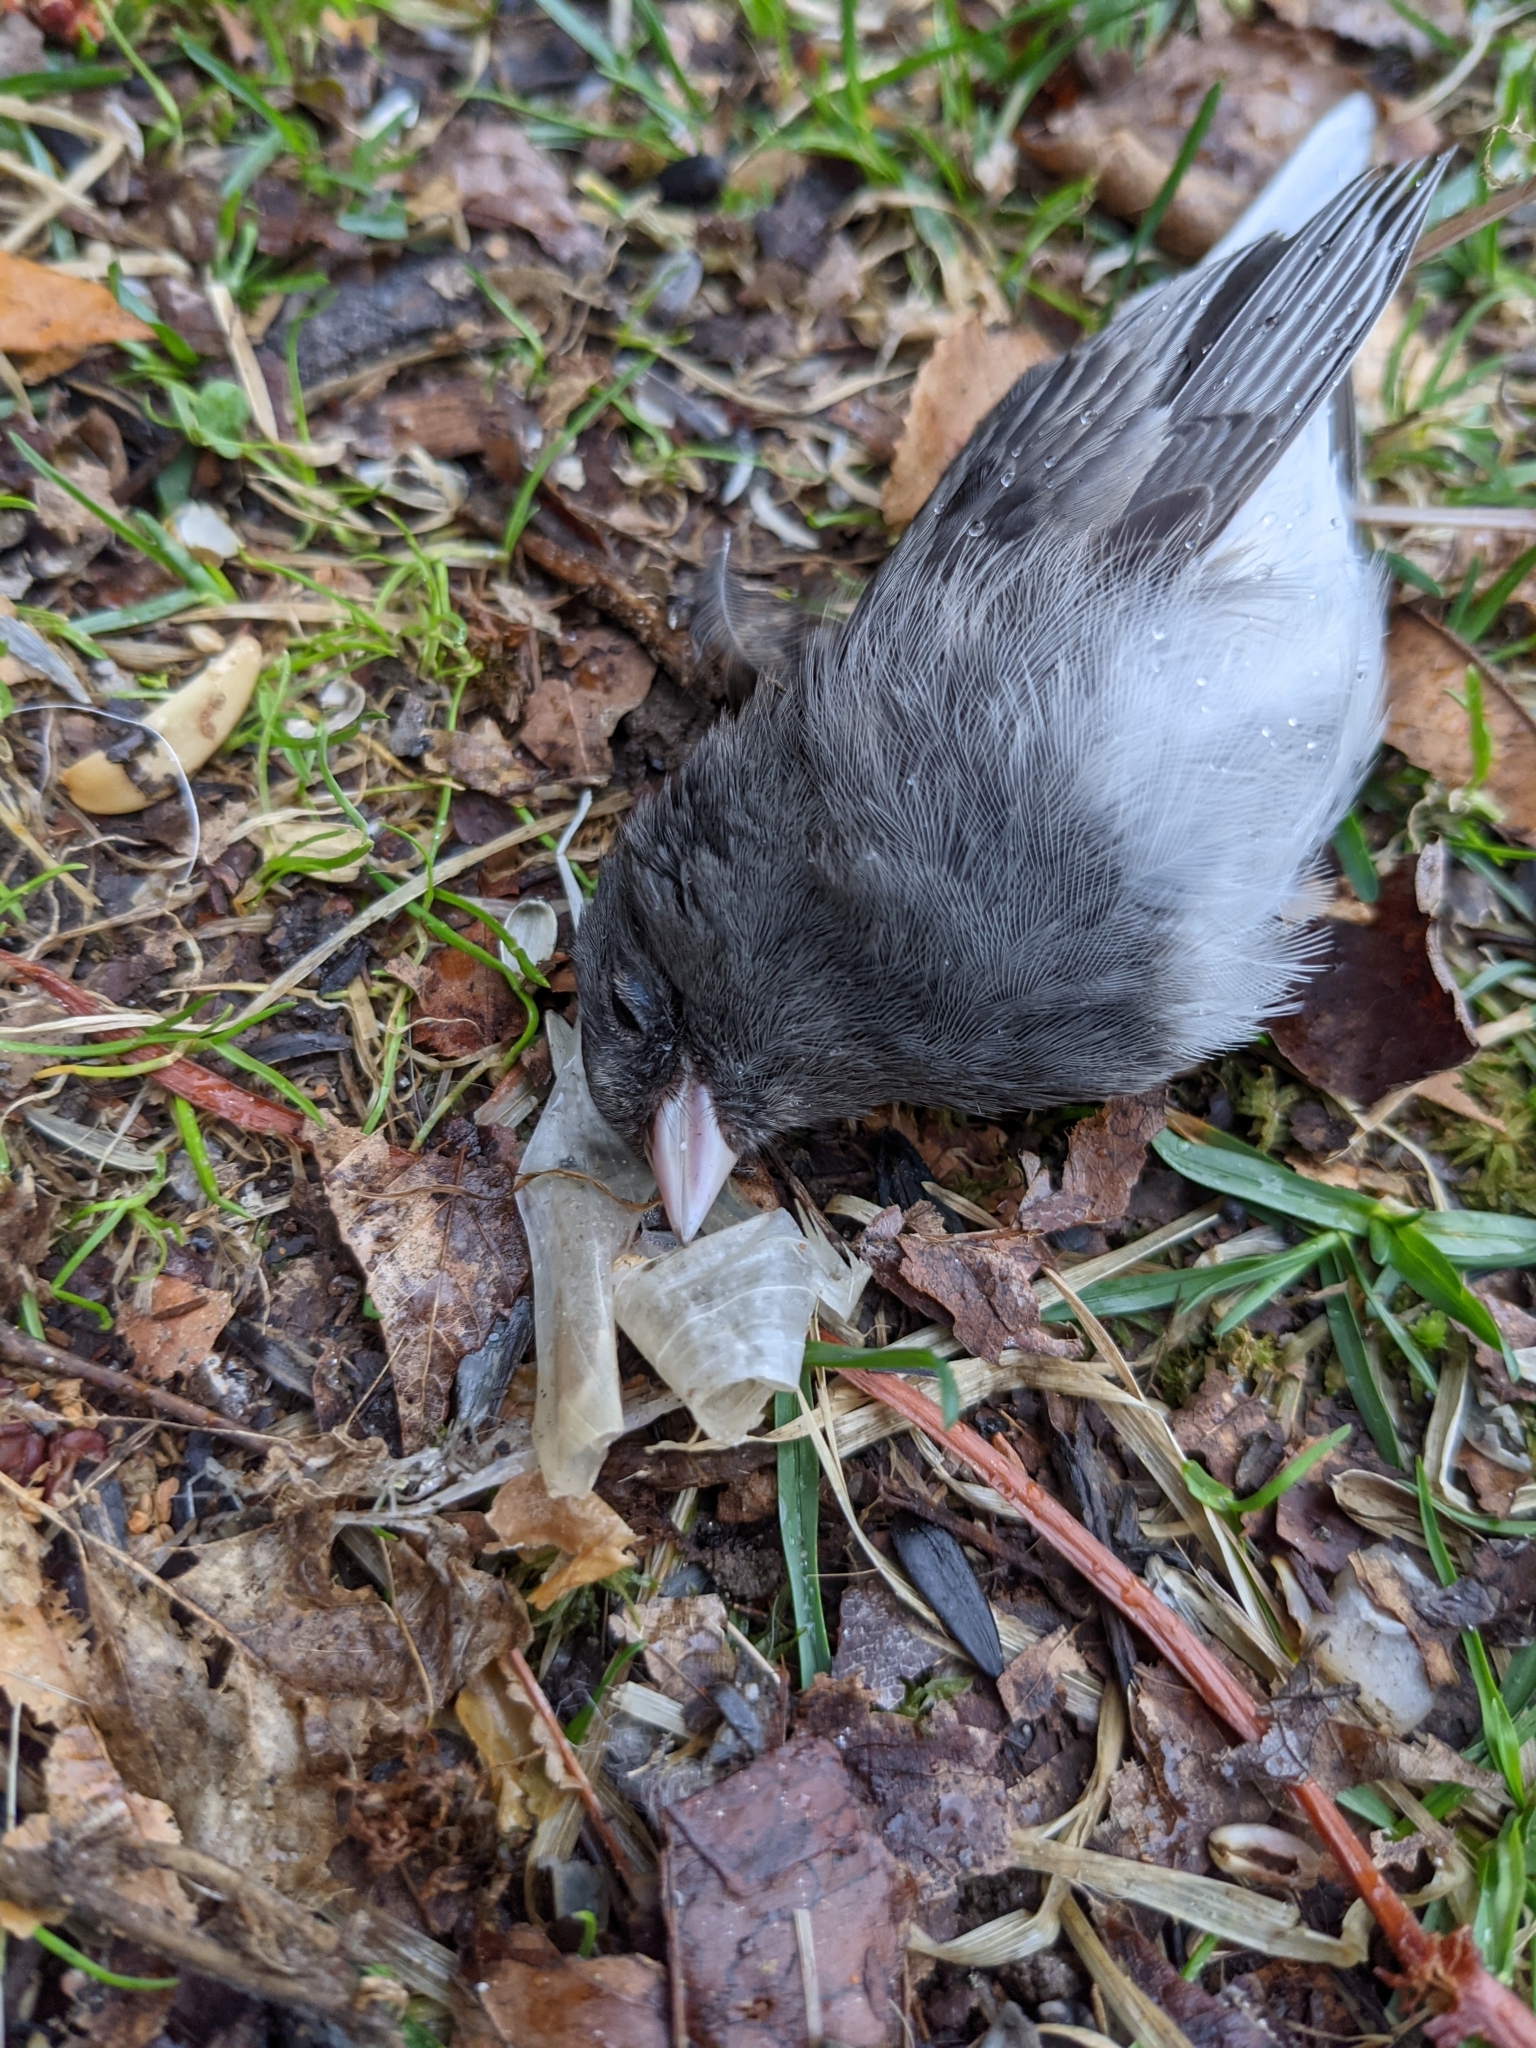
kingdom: Animalia
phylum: Chordata
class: Aves
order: Passeriformes
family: Passerellidae
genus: Junco
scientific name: Junco hyemalis
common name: Dark-eyed junco
